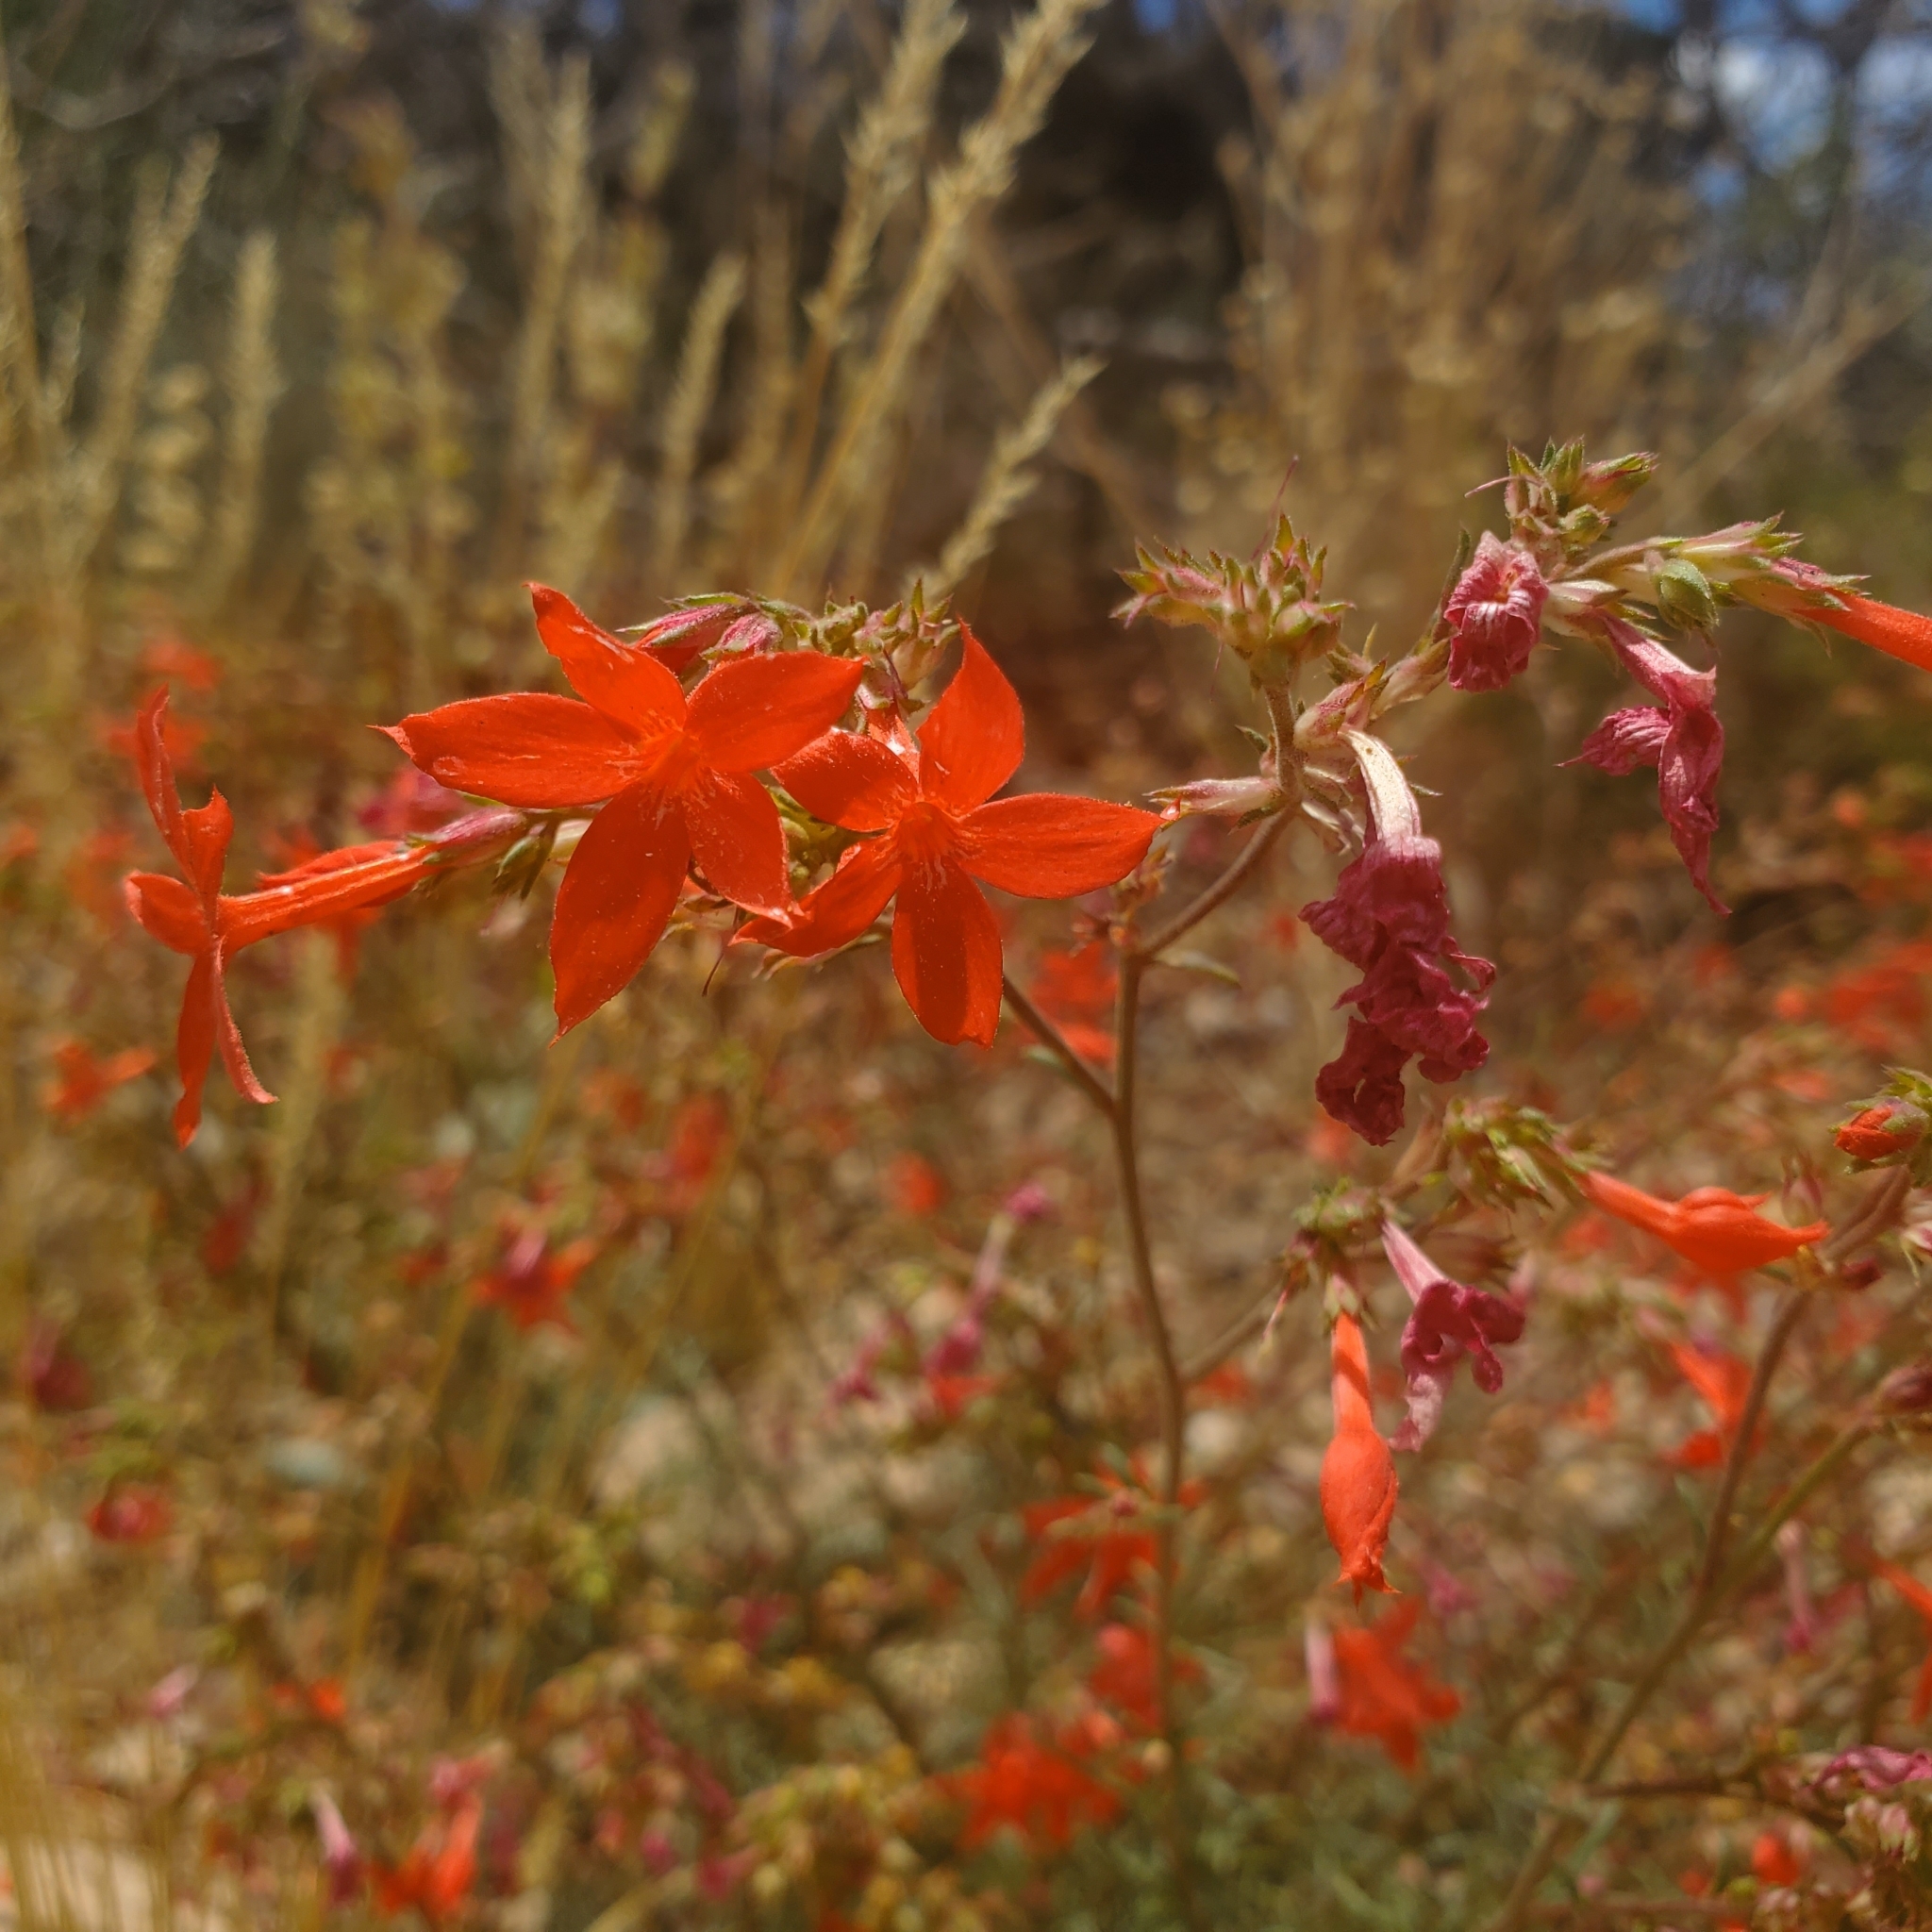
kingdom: Plantae
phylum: Tracheophyta
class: Magnoliopsida
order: Ericales
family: Polemoniaceae
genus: Ipomopsis
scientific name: Ipomopsis arizonica
